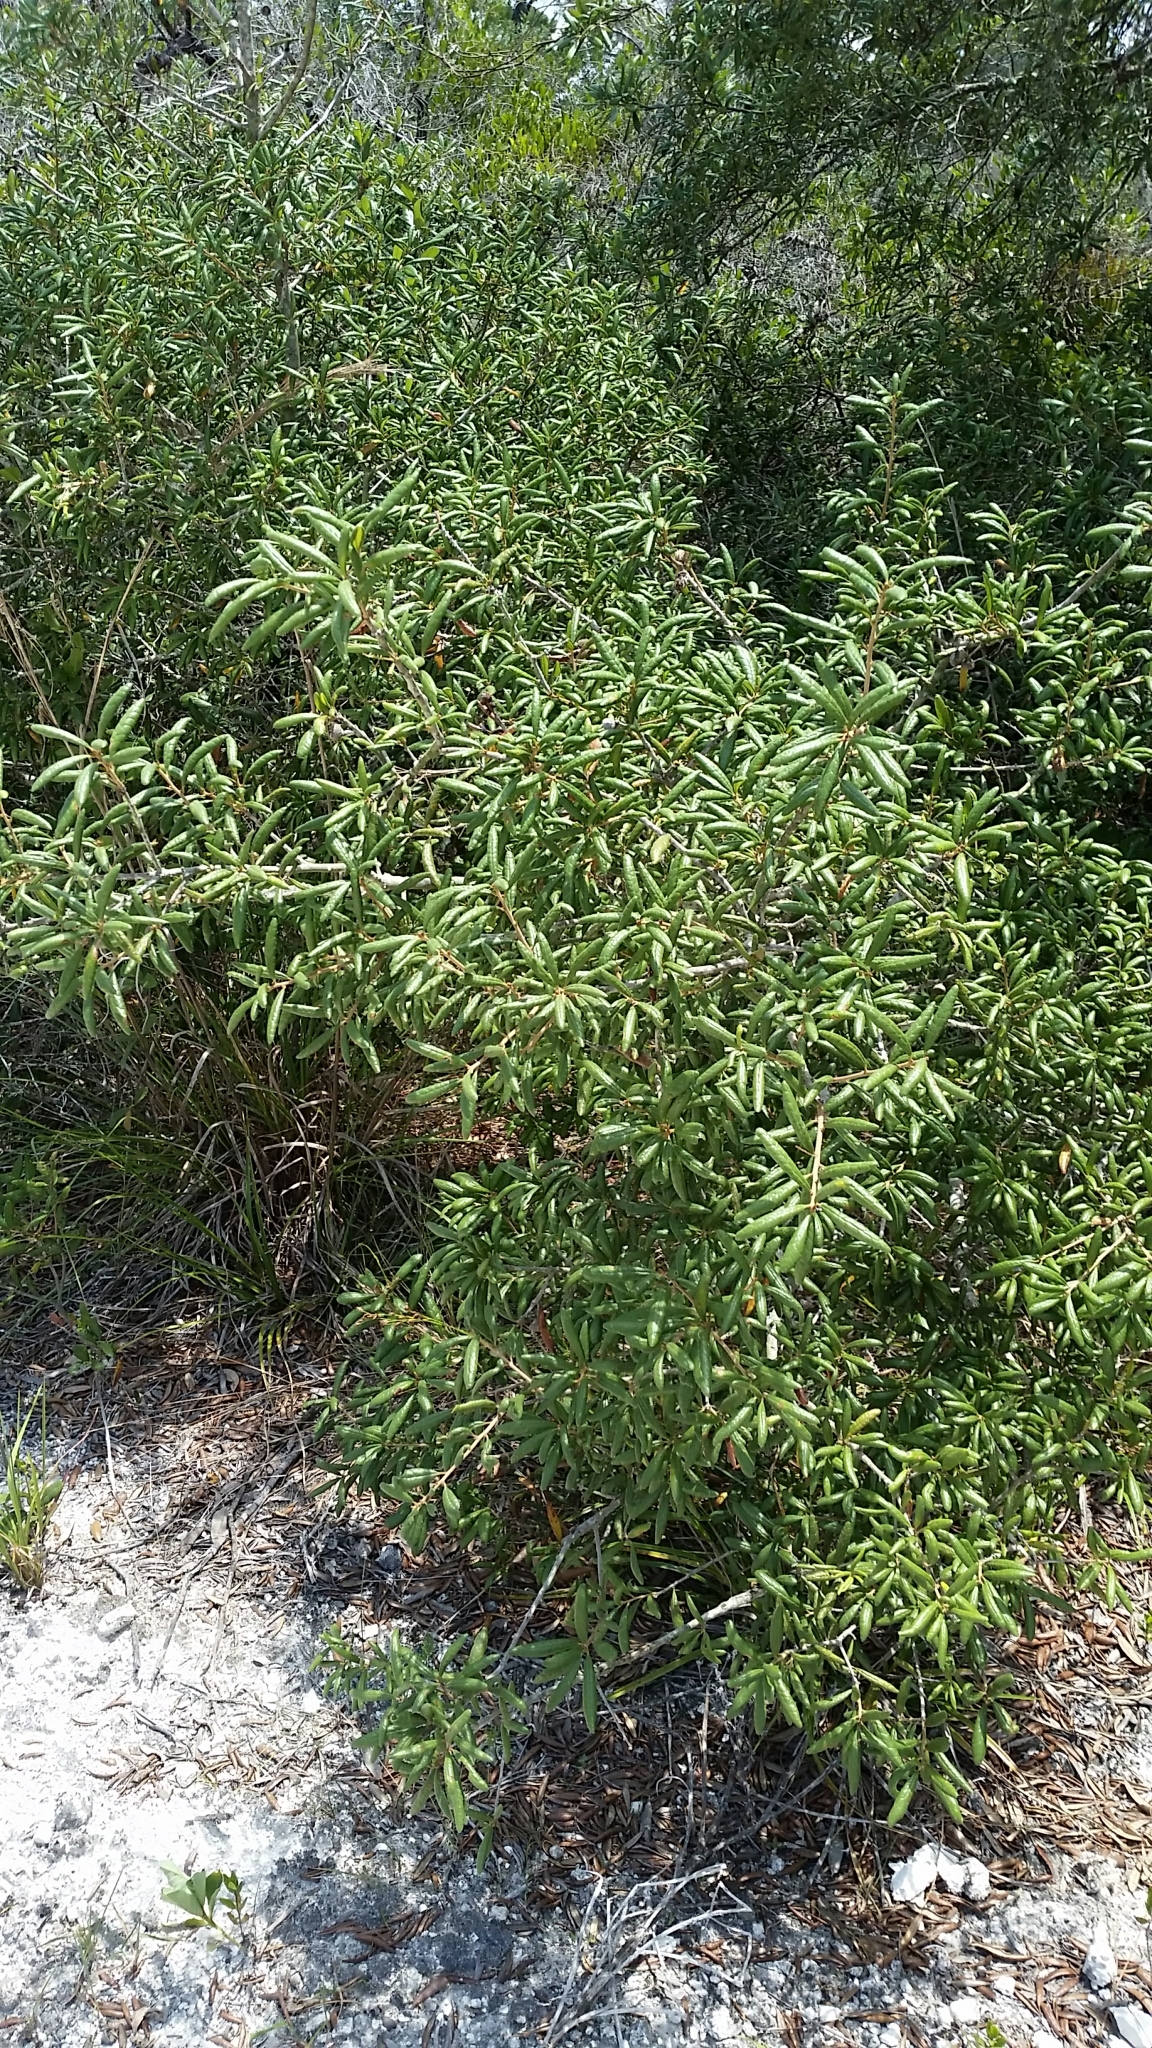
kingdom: Plantae
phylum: Tracheophyta
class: Magnoliopsida
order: Fagales
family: Fagaceae
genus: Quercus
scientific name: Quercus geminata
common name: Sand live oak
